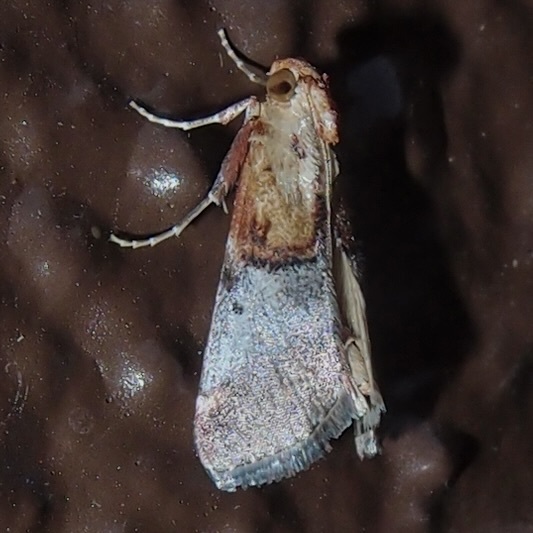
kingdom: Animalia
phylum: Arthropoda
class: Insecta
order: Lepidoptera
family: Pyralidae
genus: Cacozelia
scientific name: Cacozelia basiochrealis
